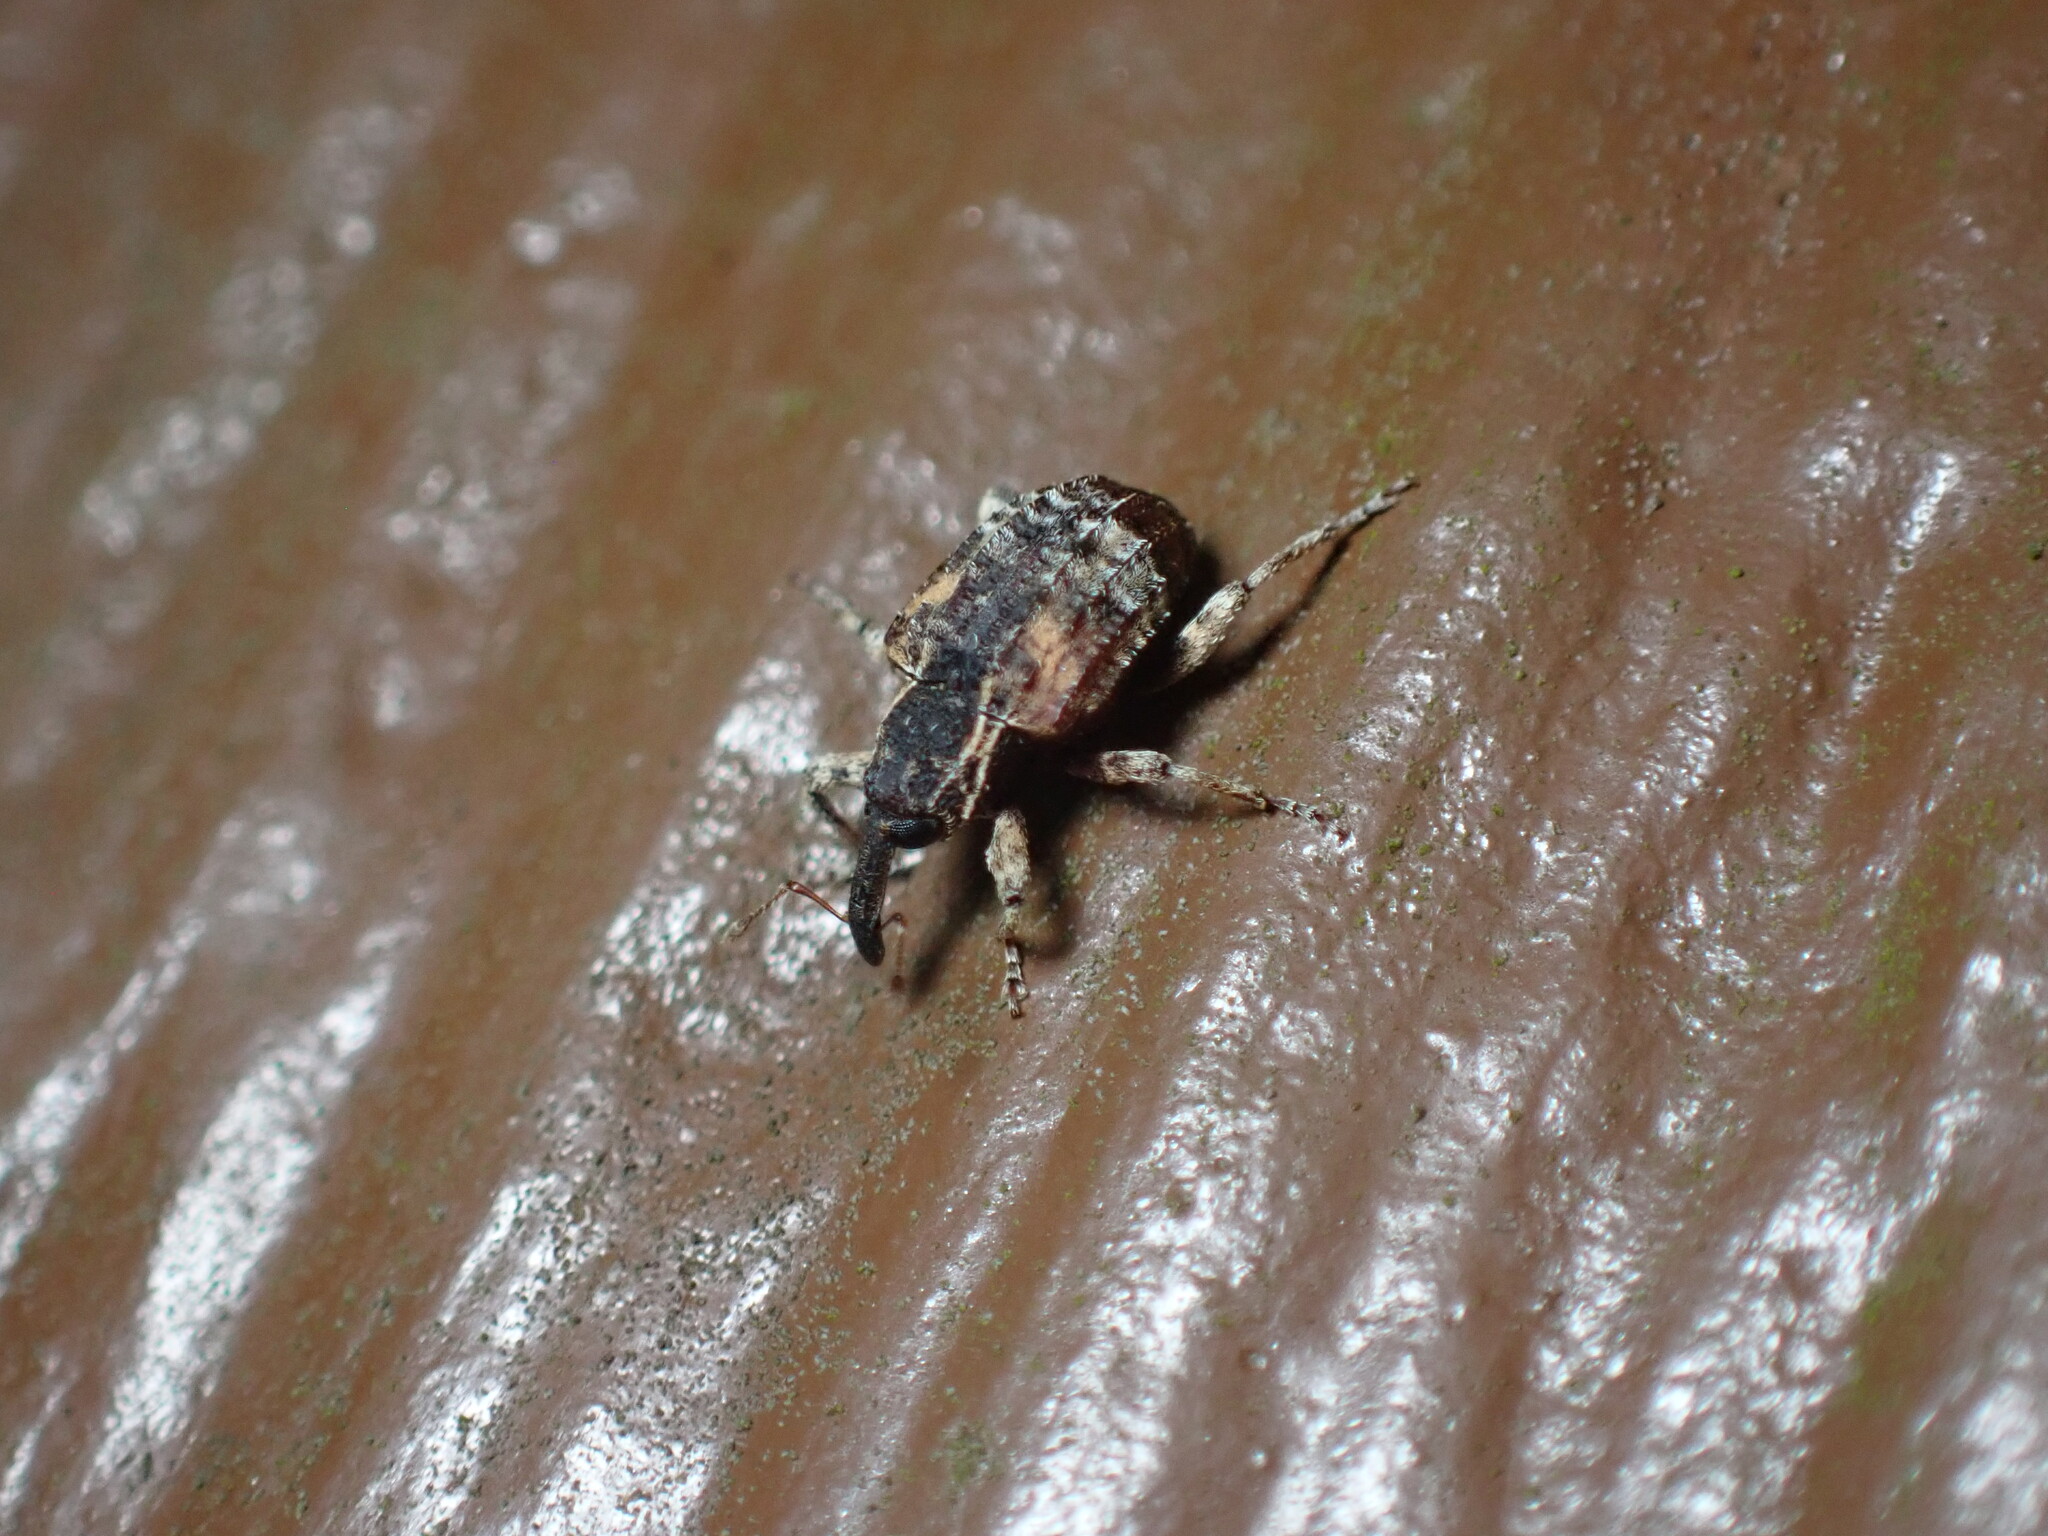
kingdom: Animalia
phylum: Arthropoda
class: Insecta
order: Coleoptera
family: Curculionidae
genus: Conotrachelus
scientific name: Conotrachelus anaglypticus
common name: Cambium curculio
